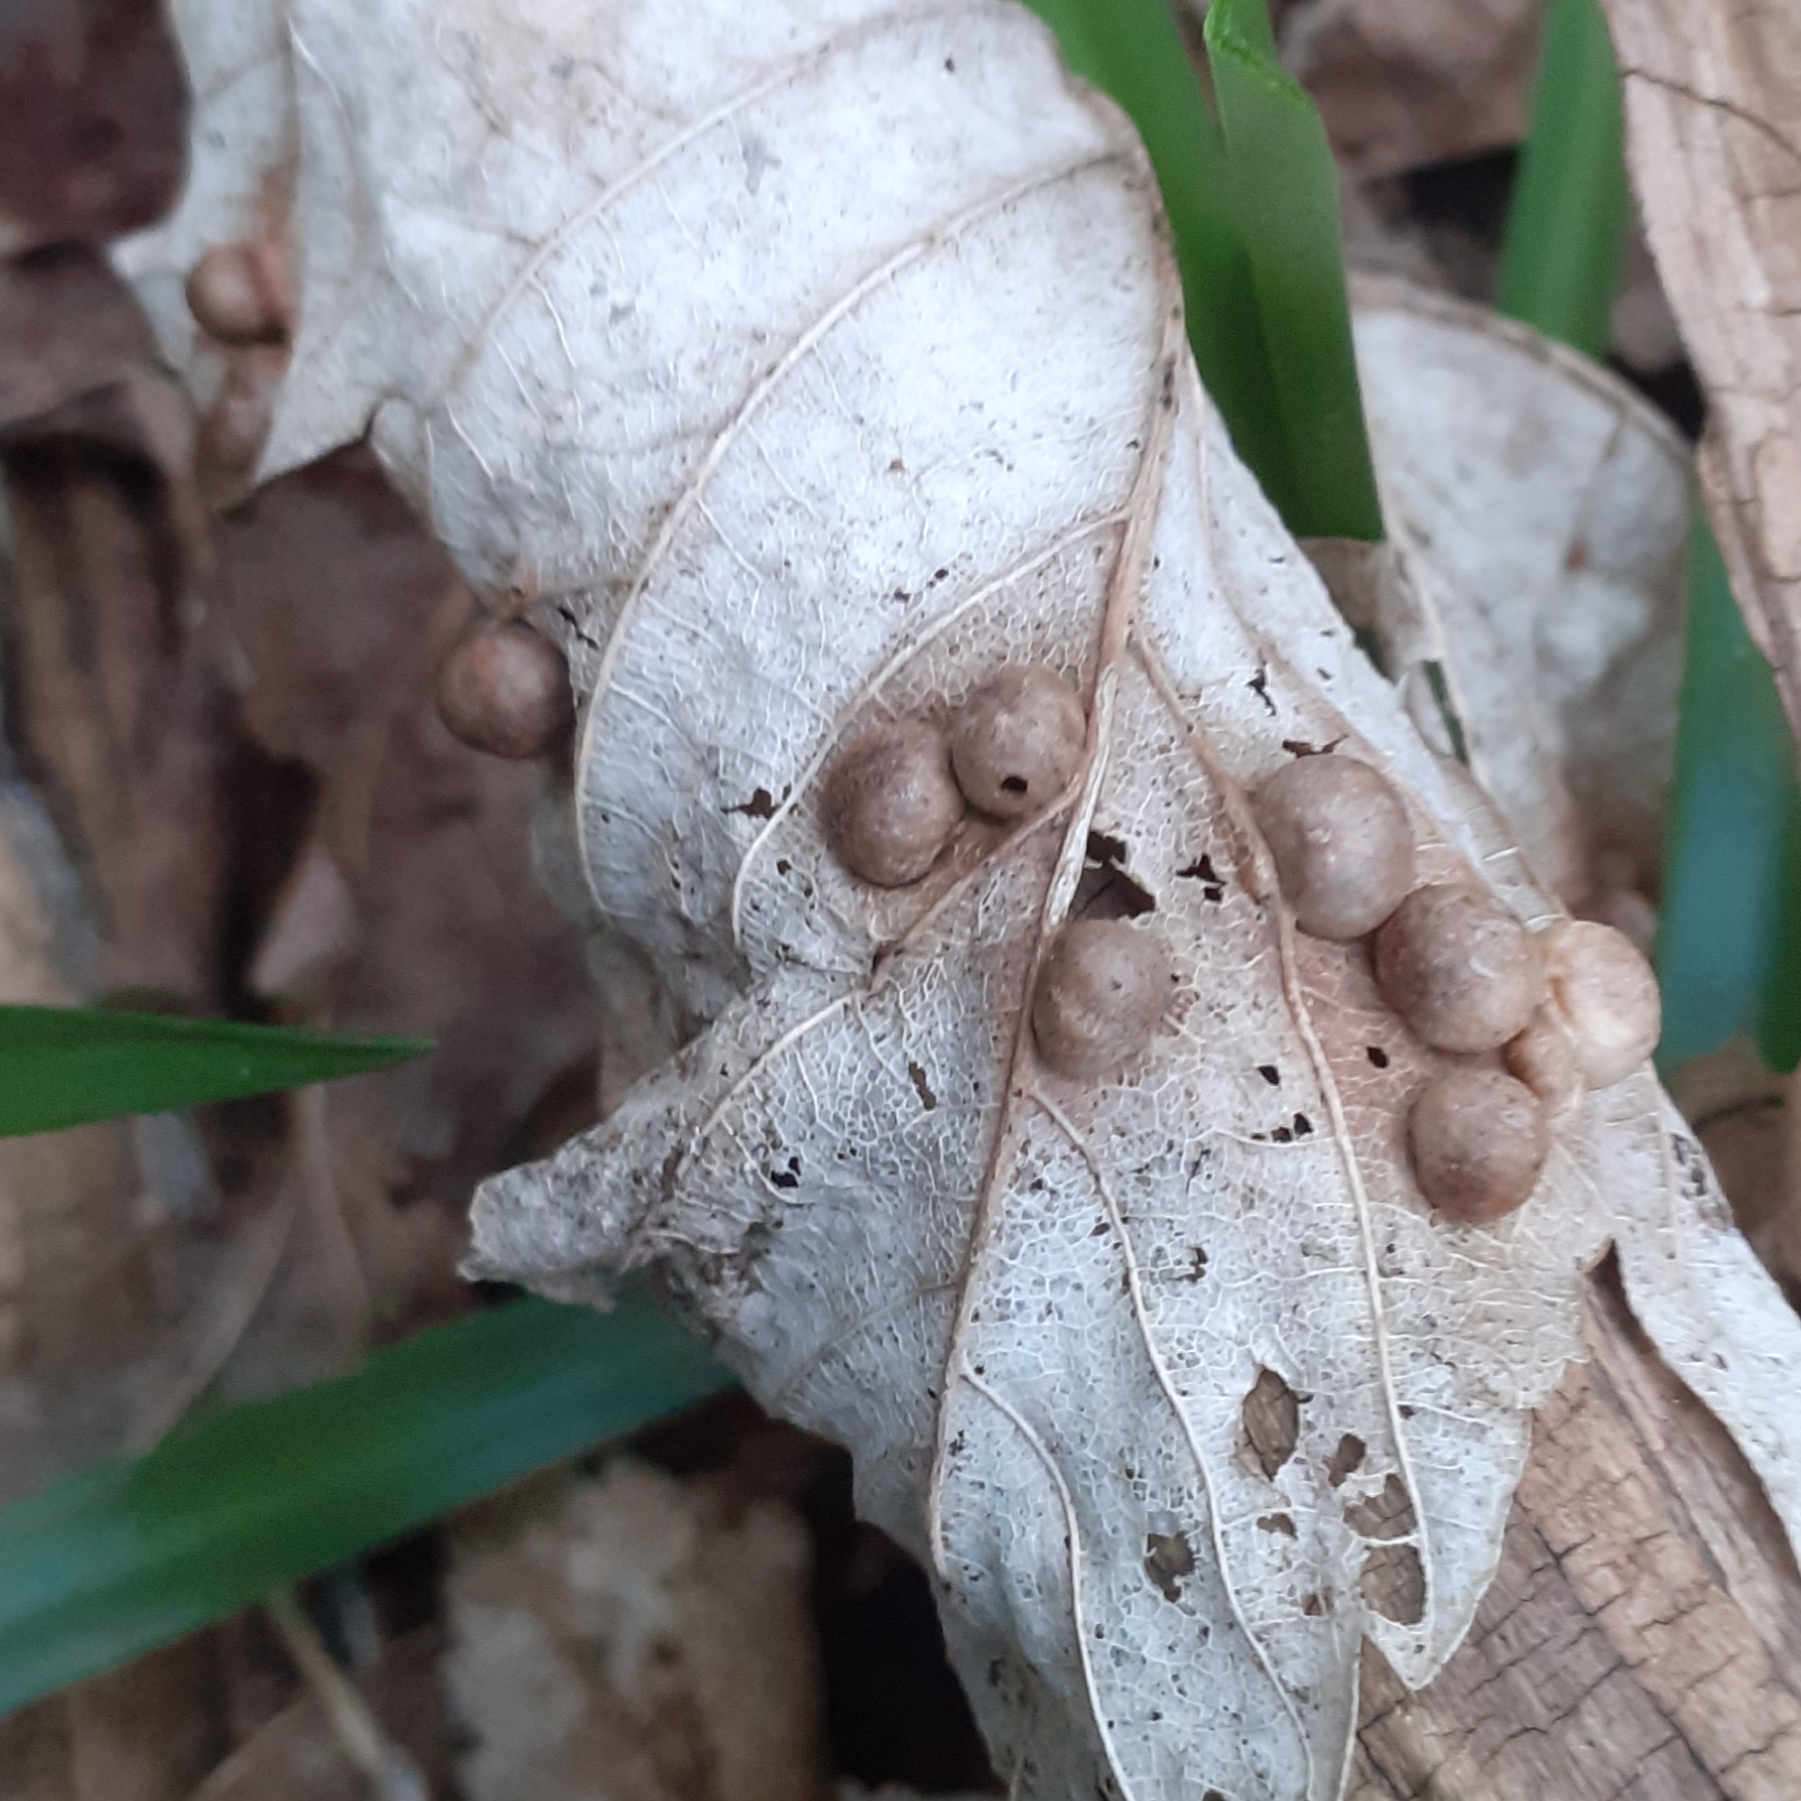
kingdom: Animalia
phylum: Arthropoda
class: Insecta
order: Hymenoptera
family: Cynipidae
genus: Pediaspis
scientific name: Pediaspis aceris
